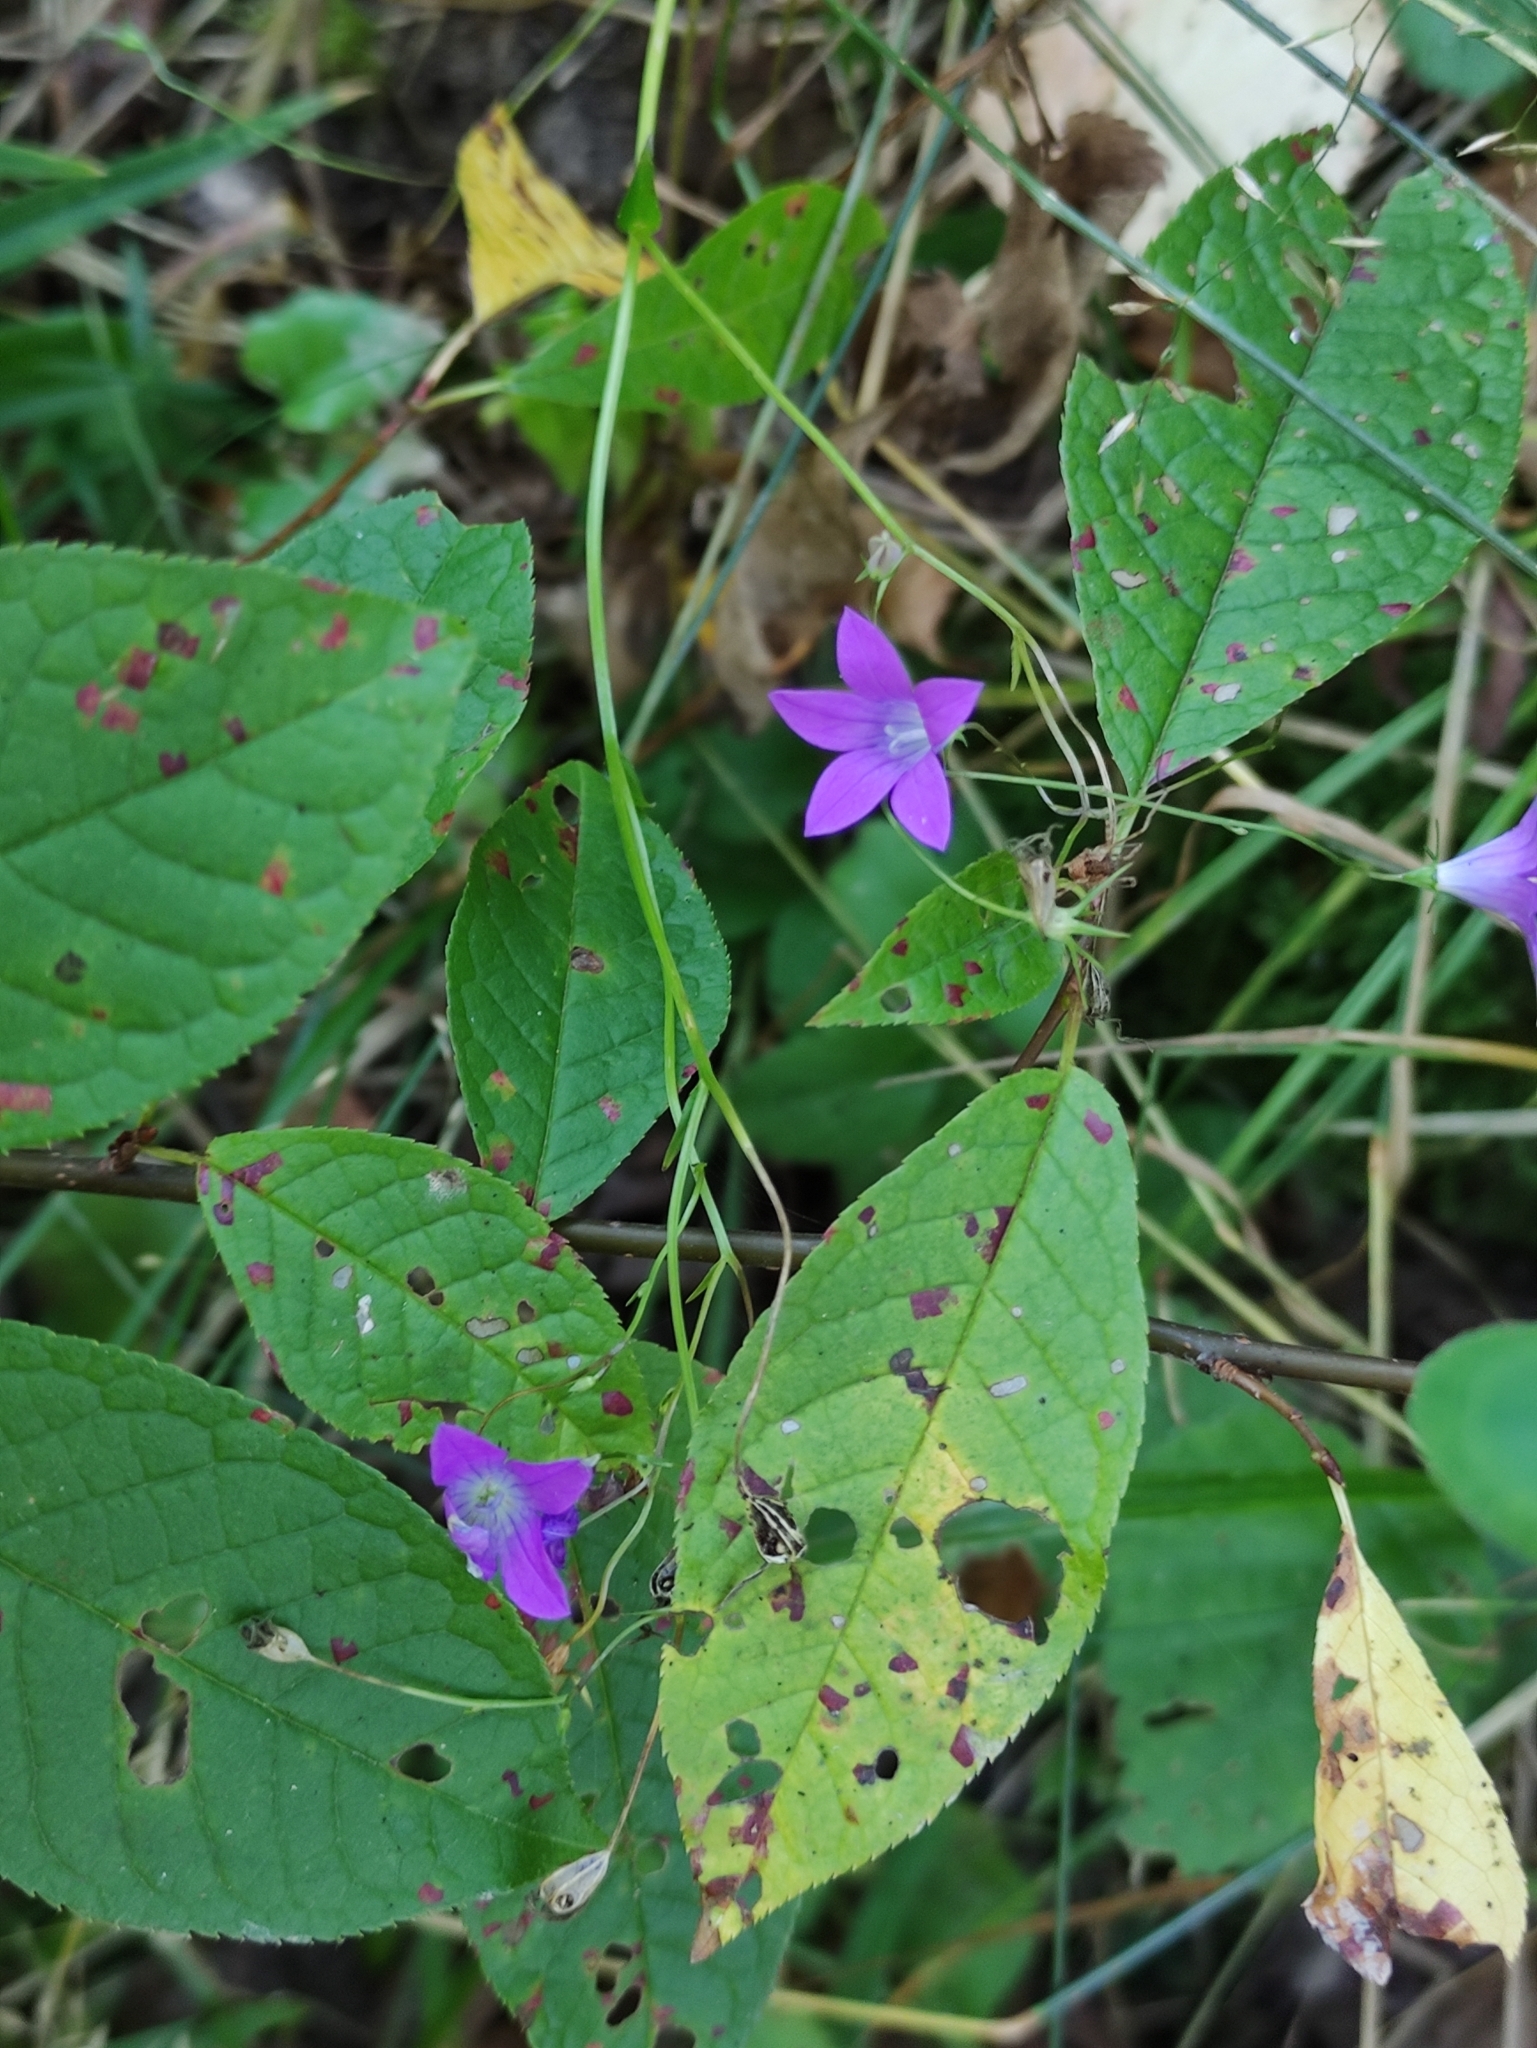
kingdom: Plantae
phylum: Tracheophyta
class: Magnoliopsida
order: Asterales
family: Campanulaceae
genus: Campanula
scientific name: Campanula patula
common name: Spreading bellflower
